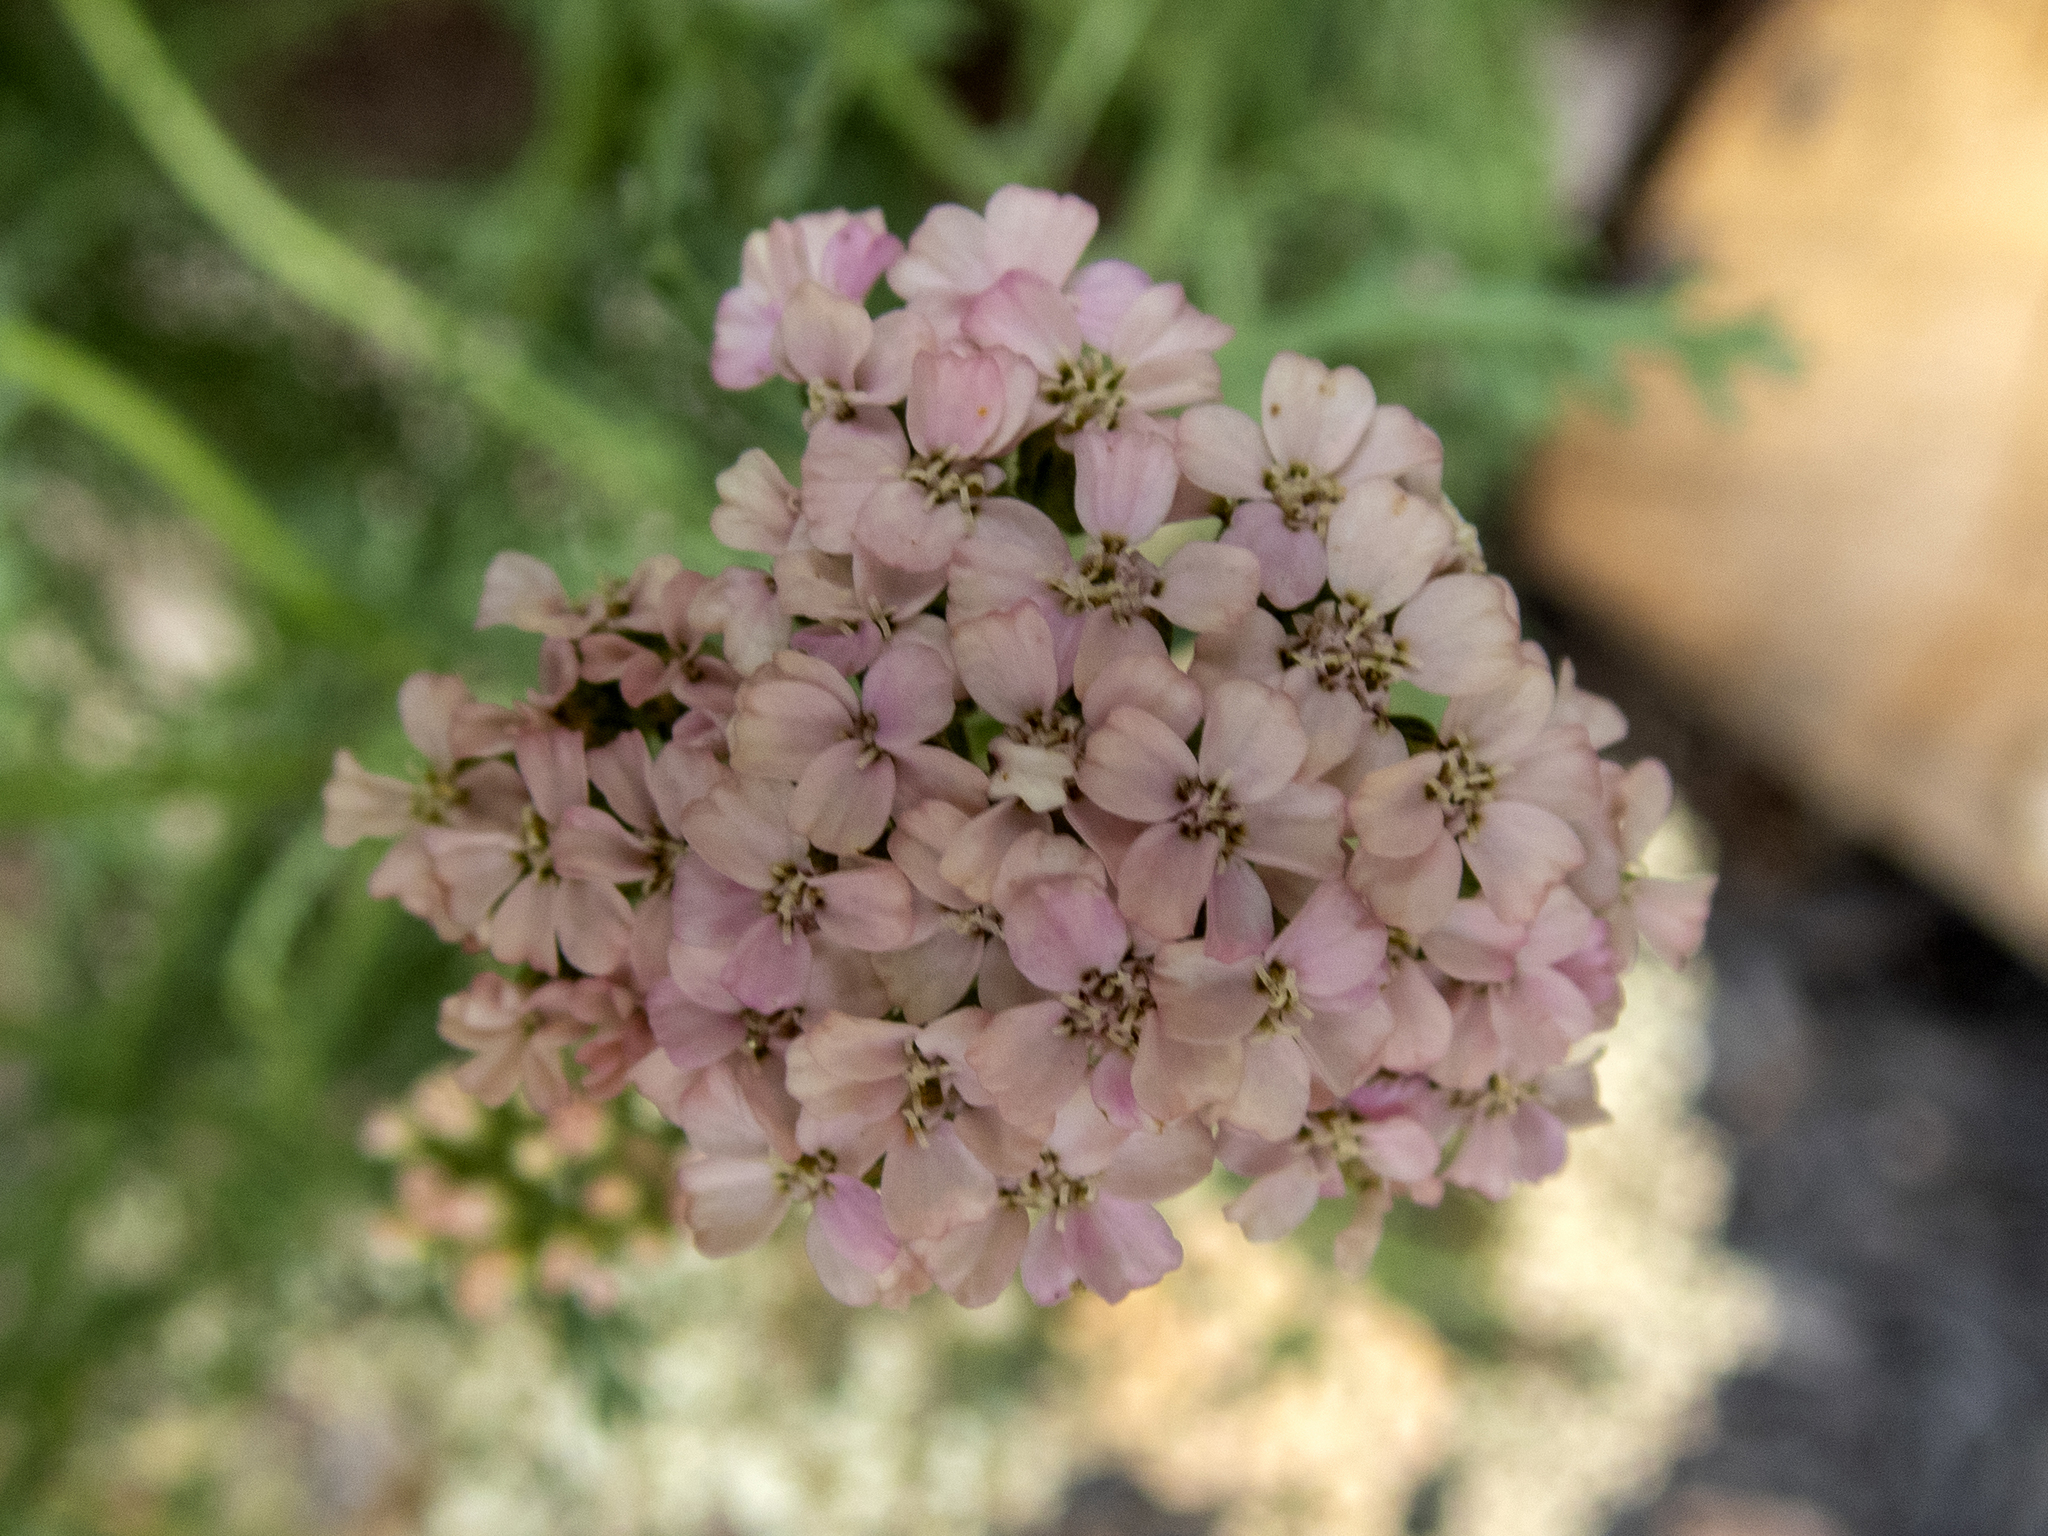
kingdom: Plantae
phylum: Tracheophyta
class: Magnoliopsida
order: Asterales
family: Asteraceae
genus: Achillea
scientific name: Achillea millefolium
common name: Yarrow
